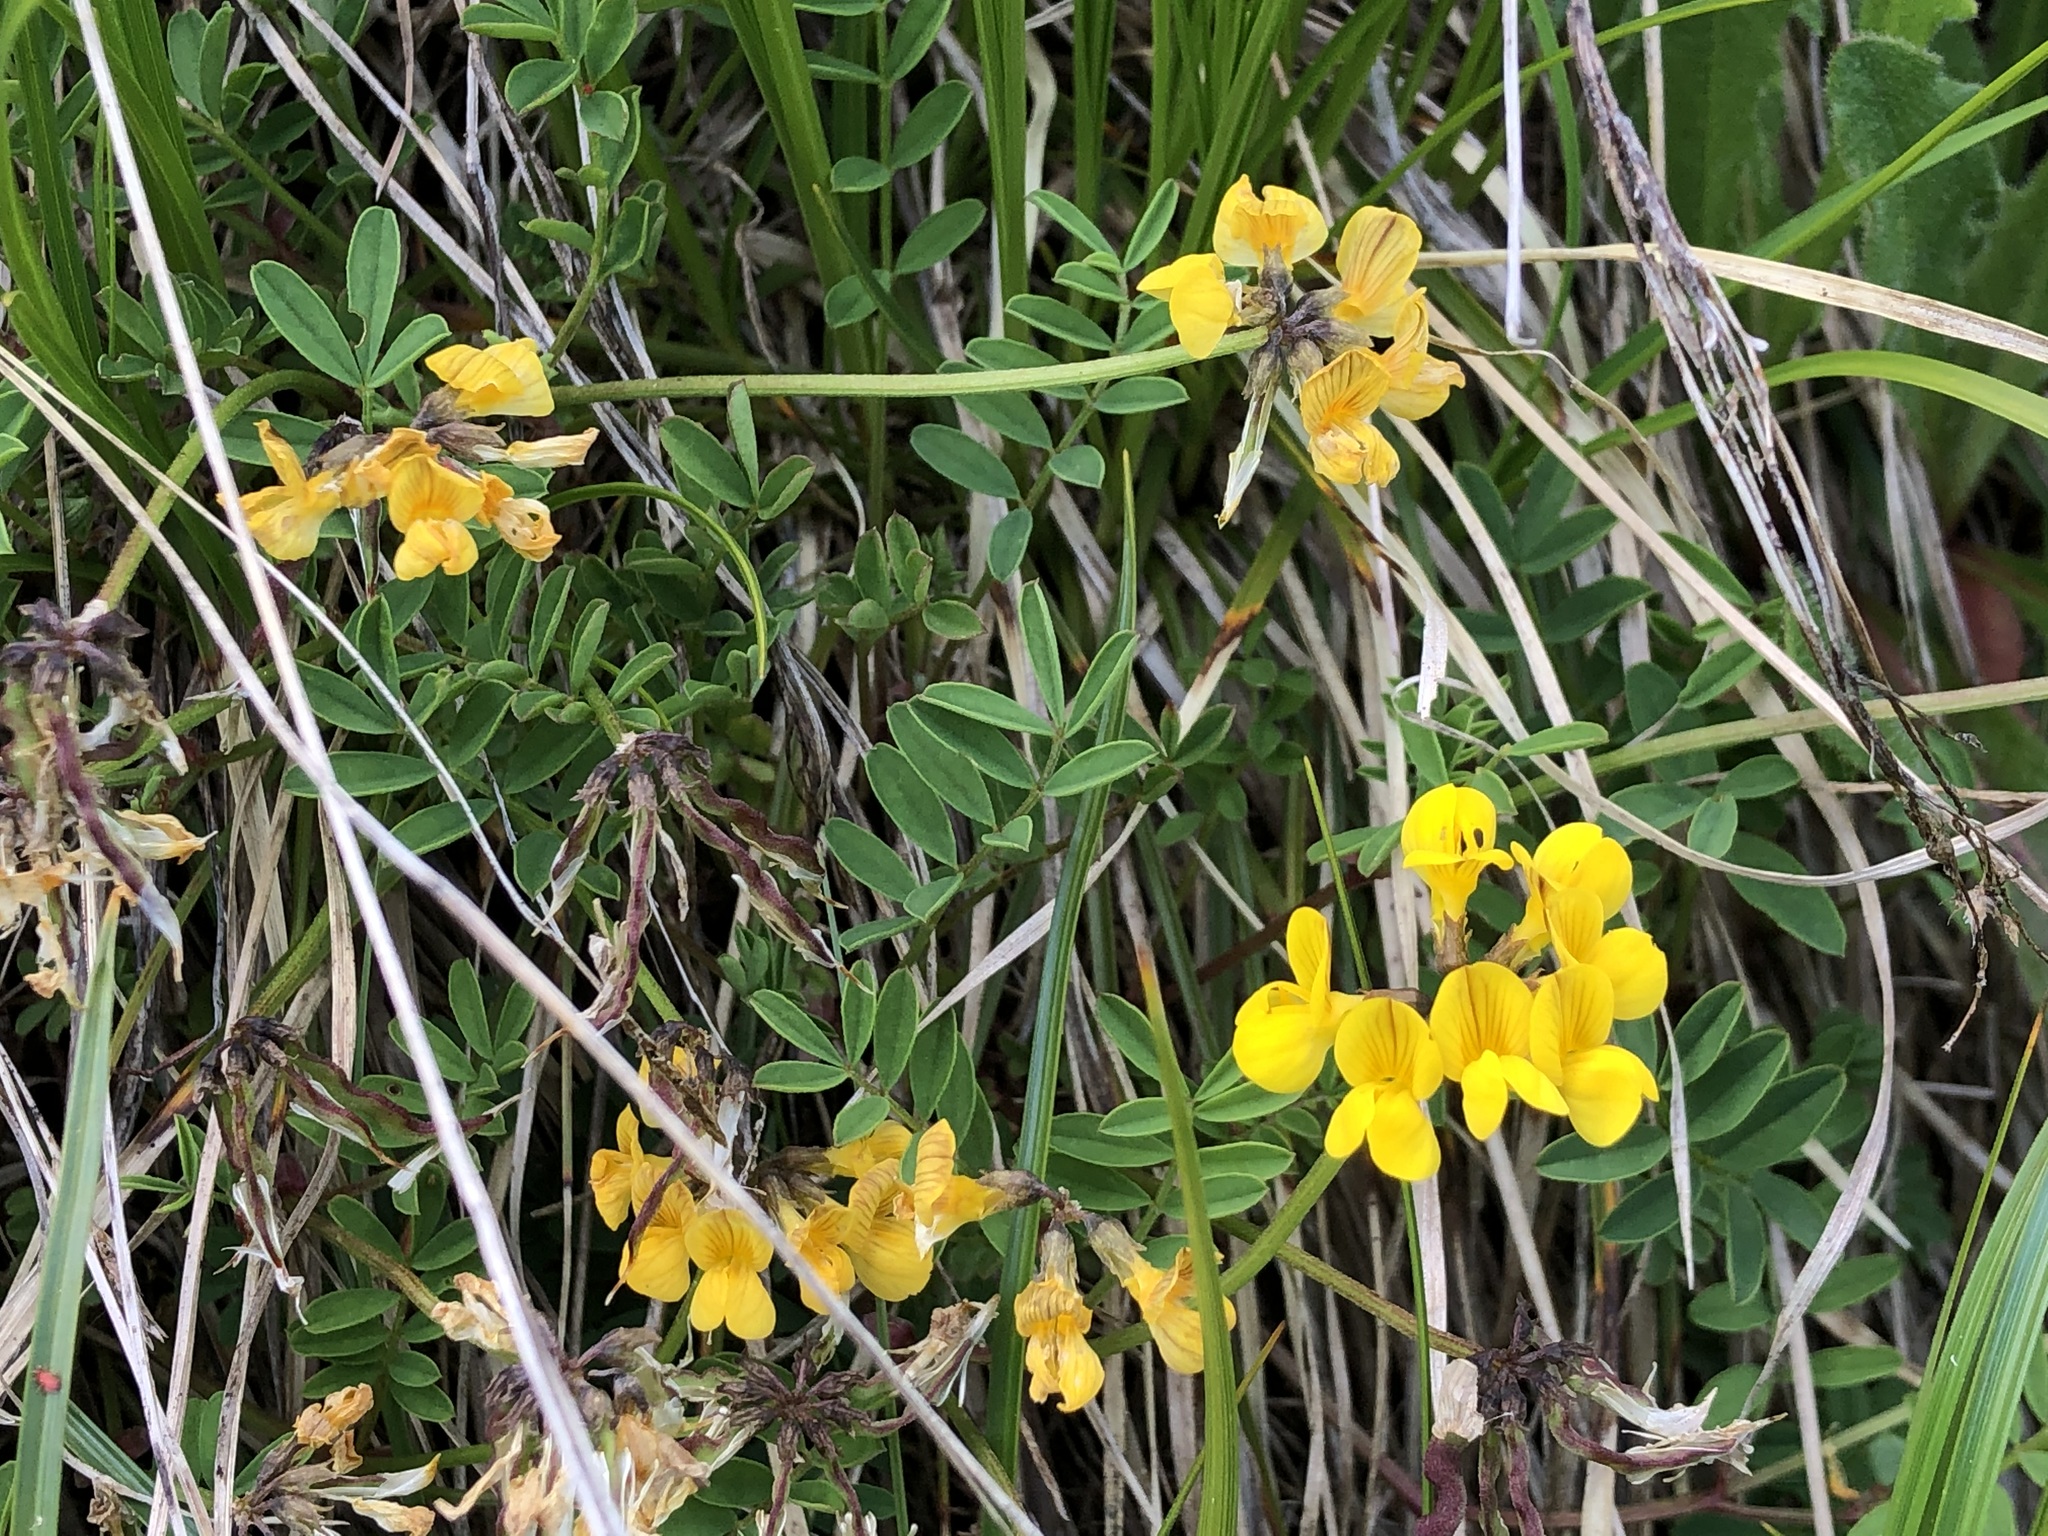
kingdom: Plantae
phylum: Tracheophyta
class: Magnoliopsida
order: Fabales
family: Fabaceae
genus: Hippocrepis
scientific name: Hippocrepis comosa
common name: Horseshoe vetch
